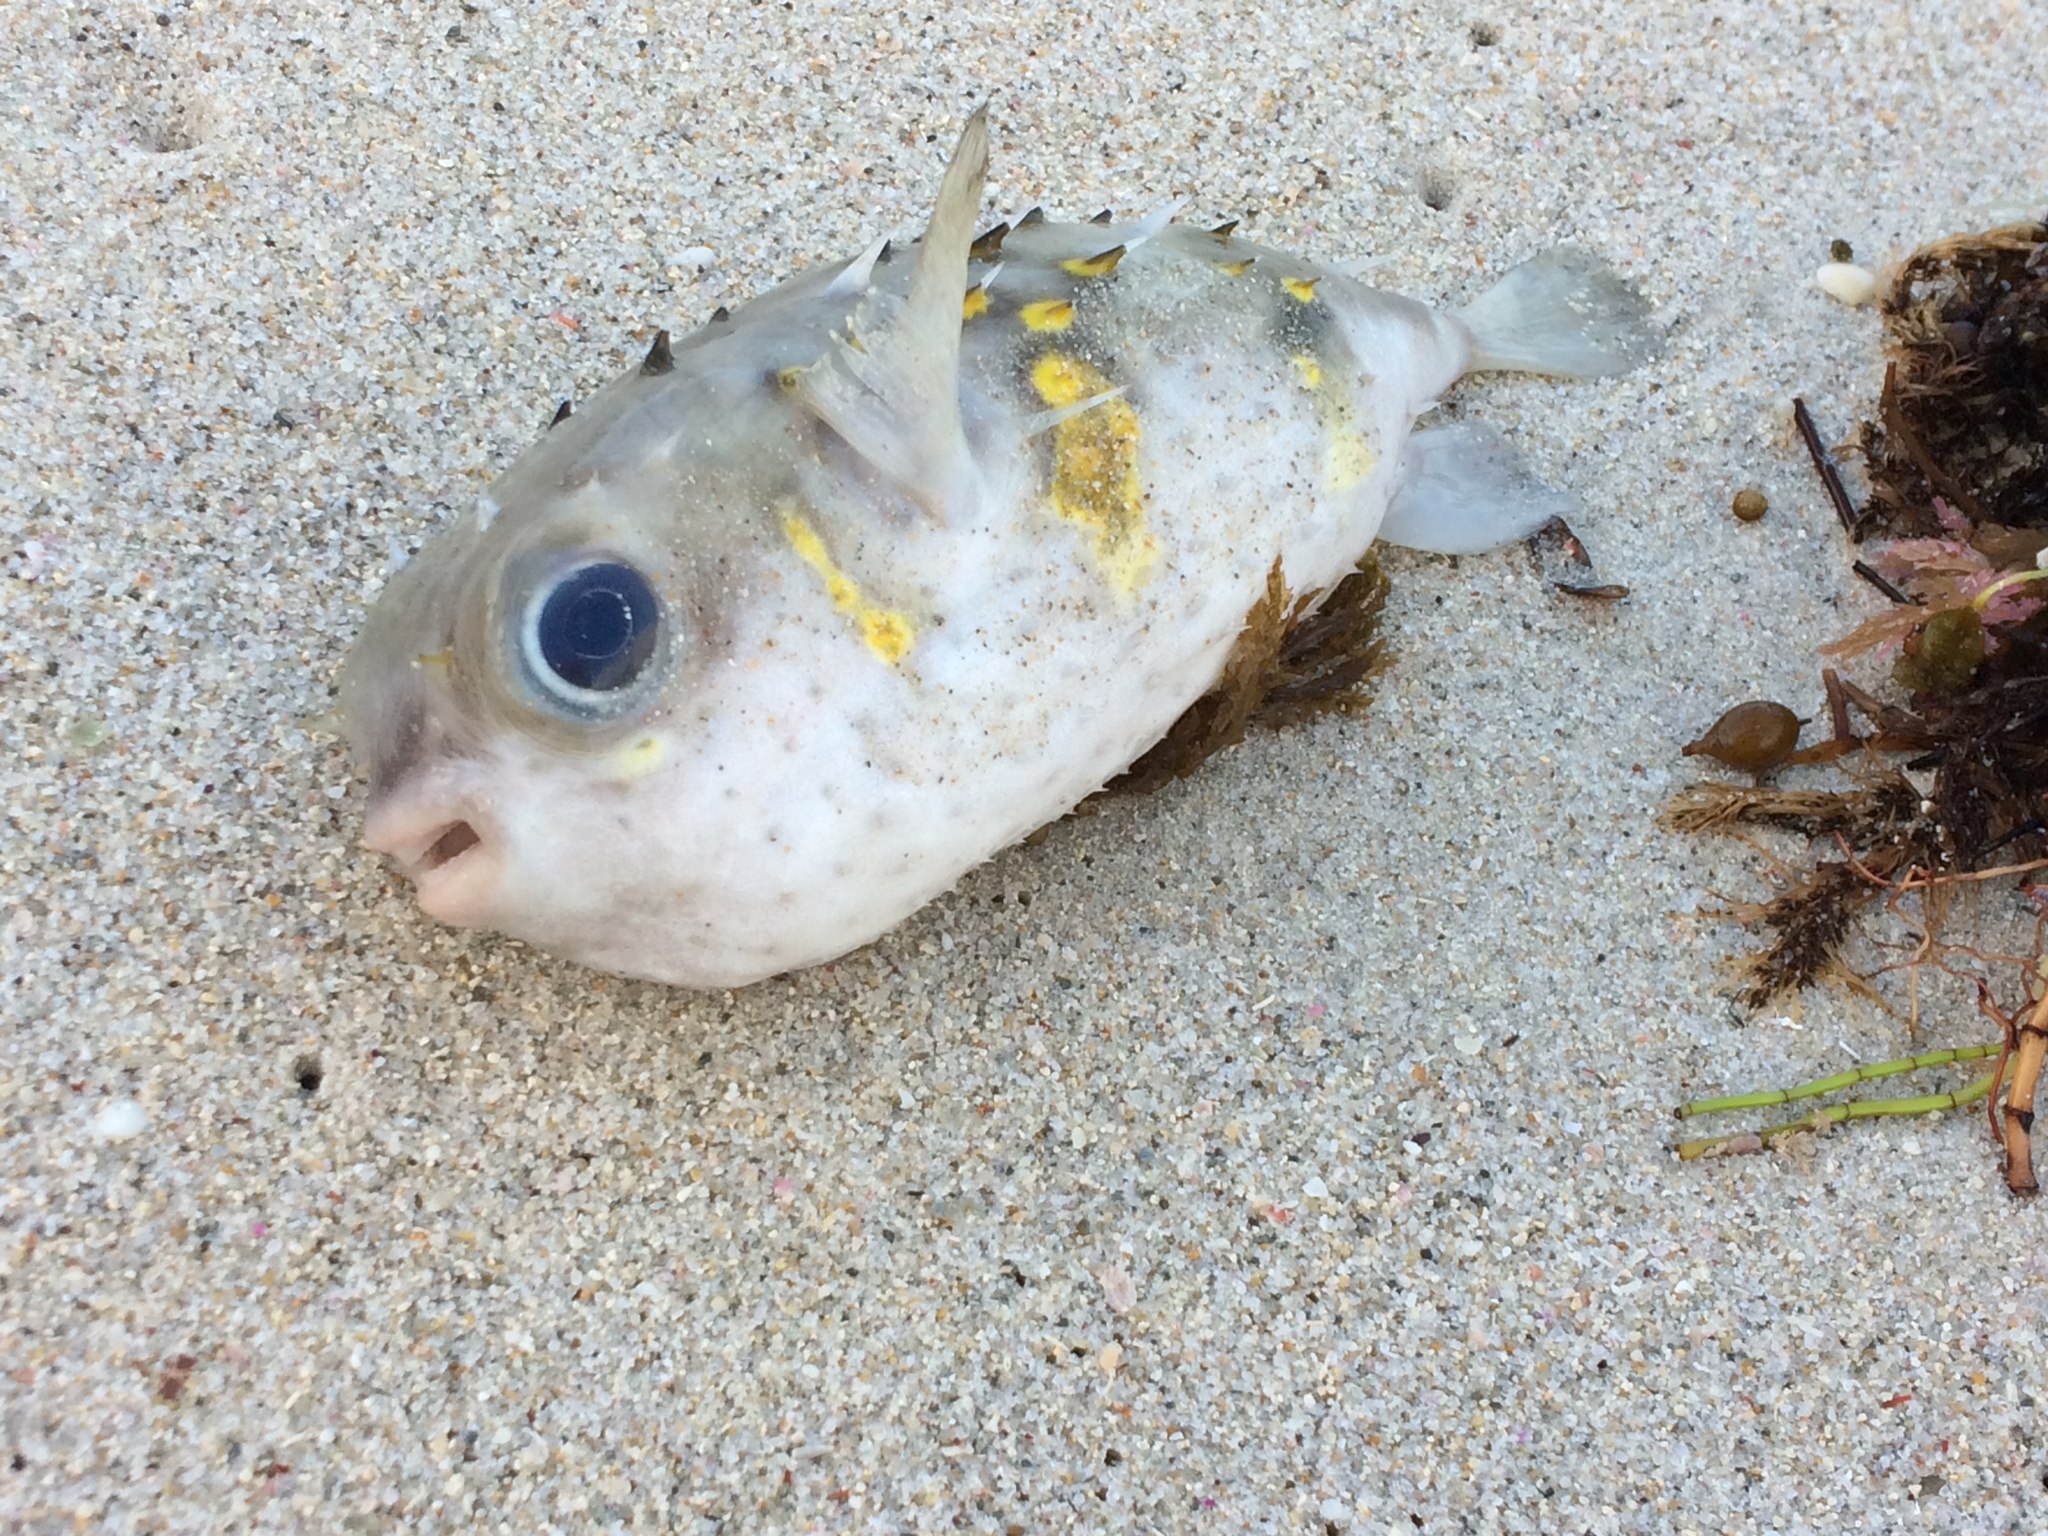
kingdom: Animalia
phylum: Chordata
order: Tetraodontiformes
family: Diodontidae
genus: Allomycterus
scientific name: Allomycterus pilatus
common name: No common name
